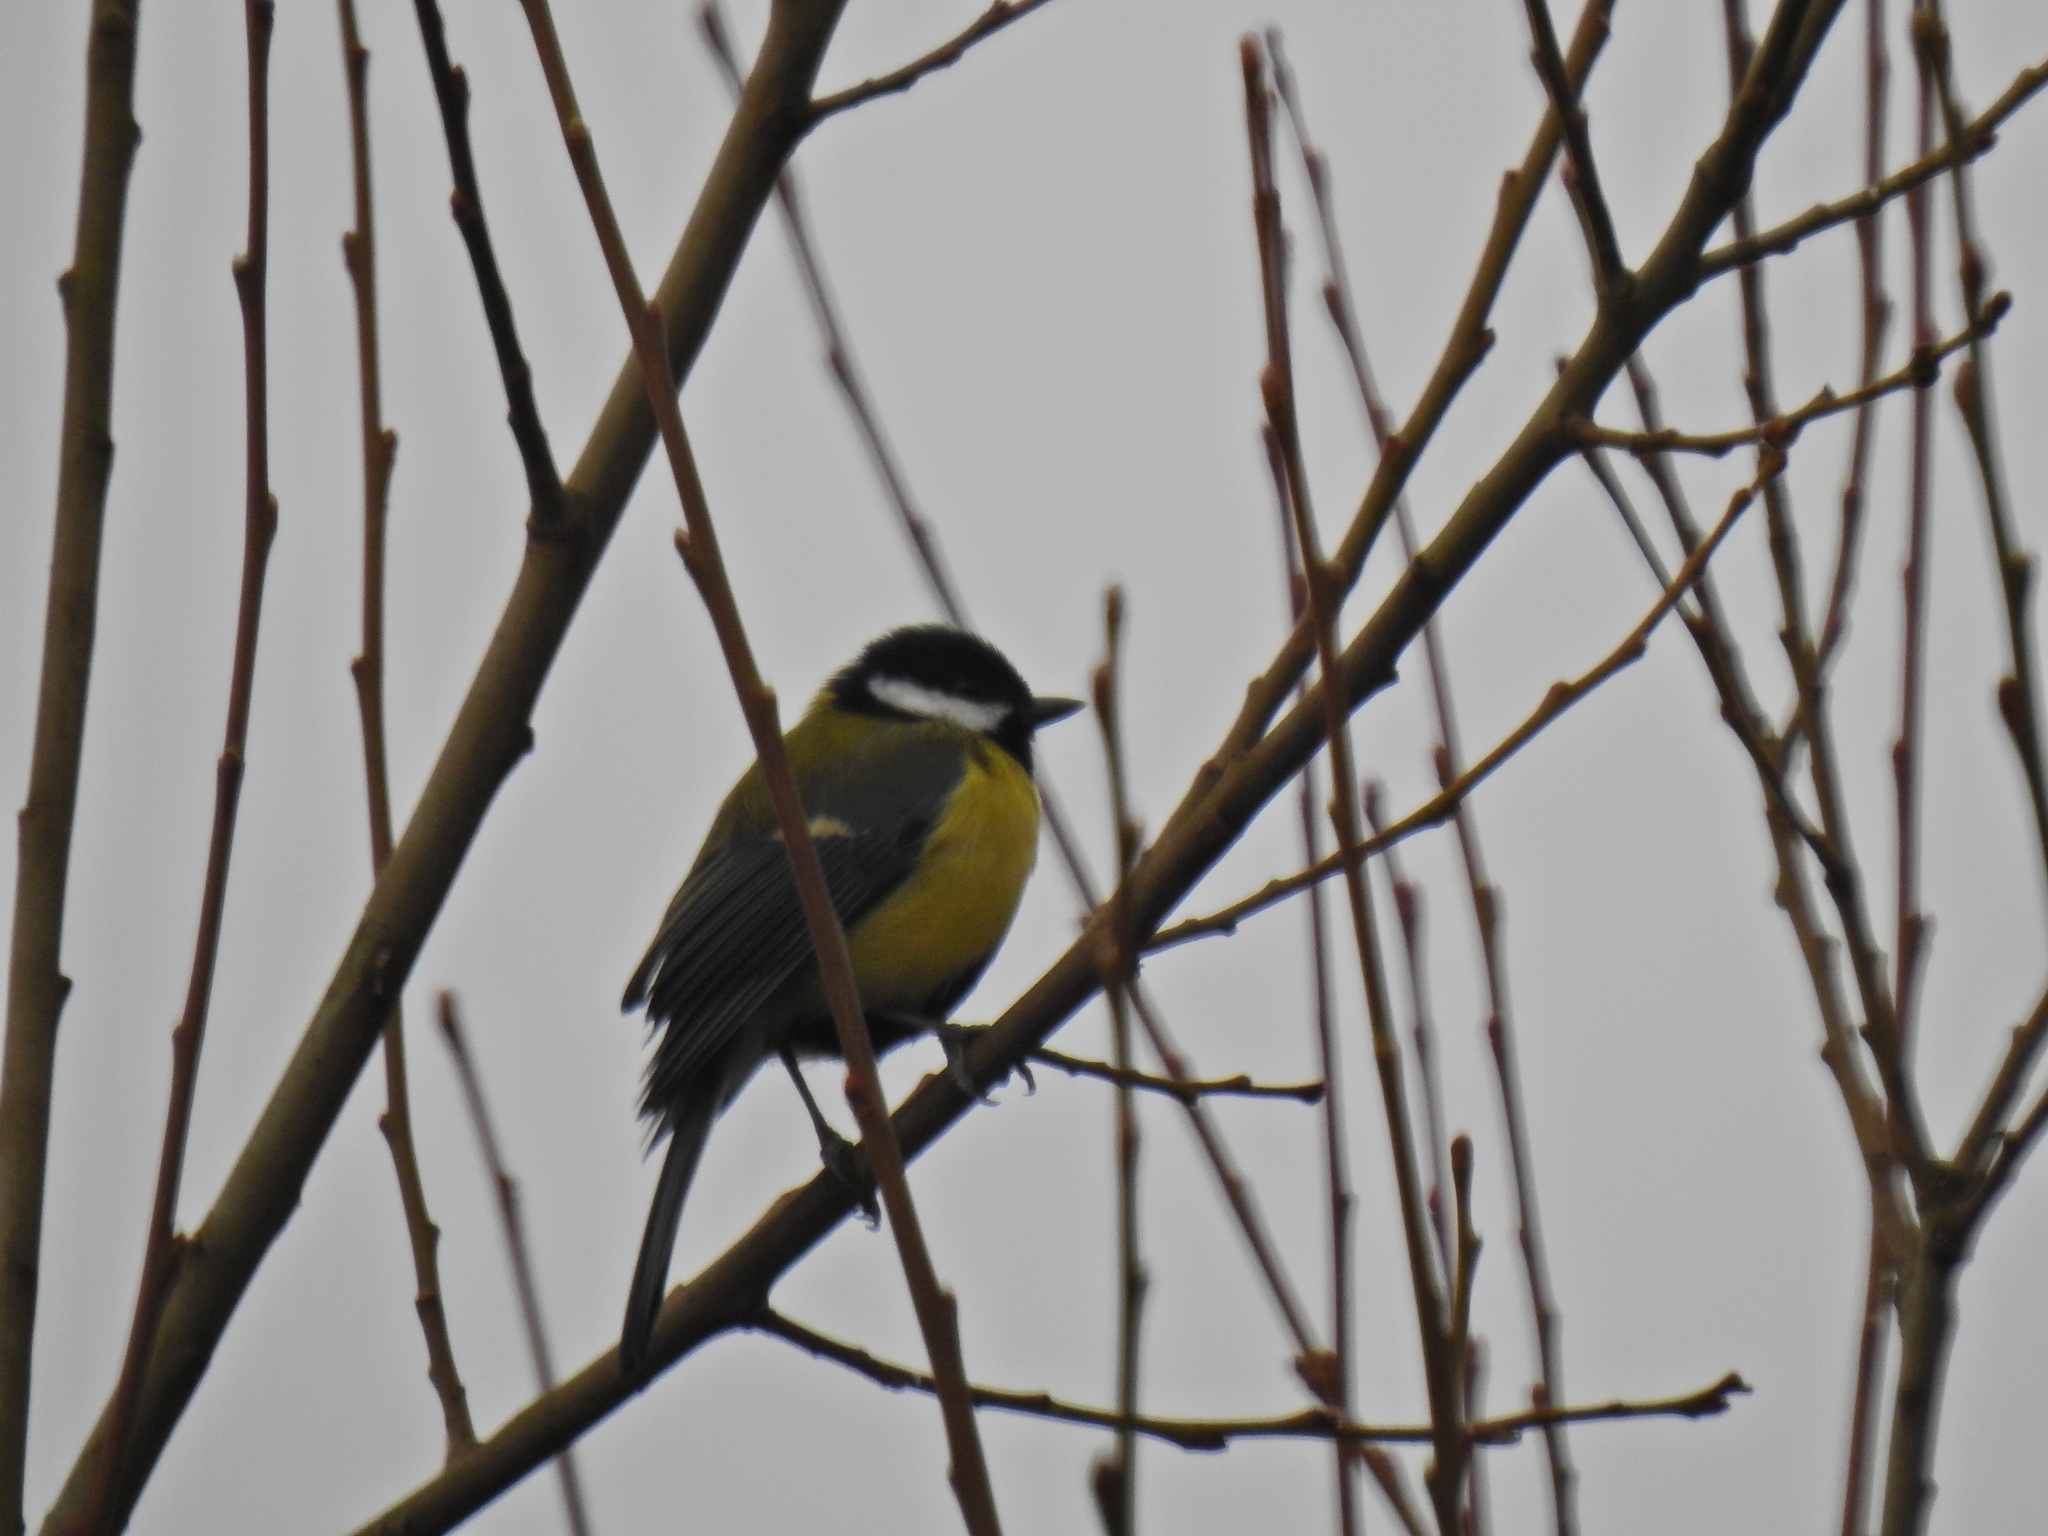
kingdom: Animalia
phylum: Chordata
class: Aves
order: Passeriformes
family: Paridae
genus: Parus
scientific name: Parus major
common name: Great tit
